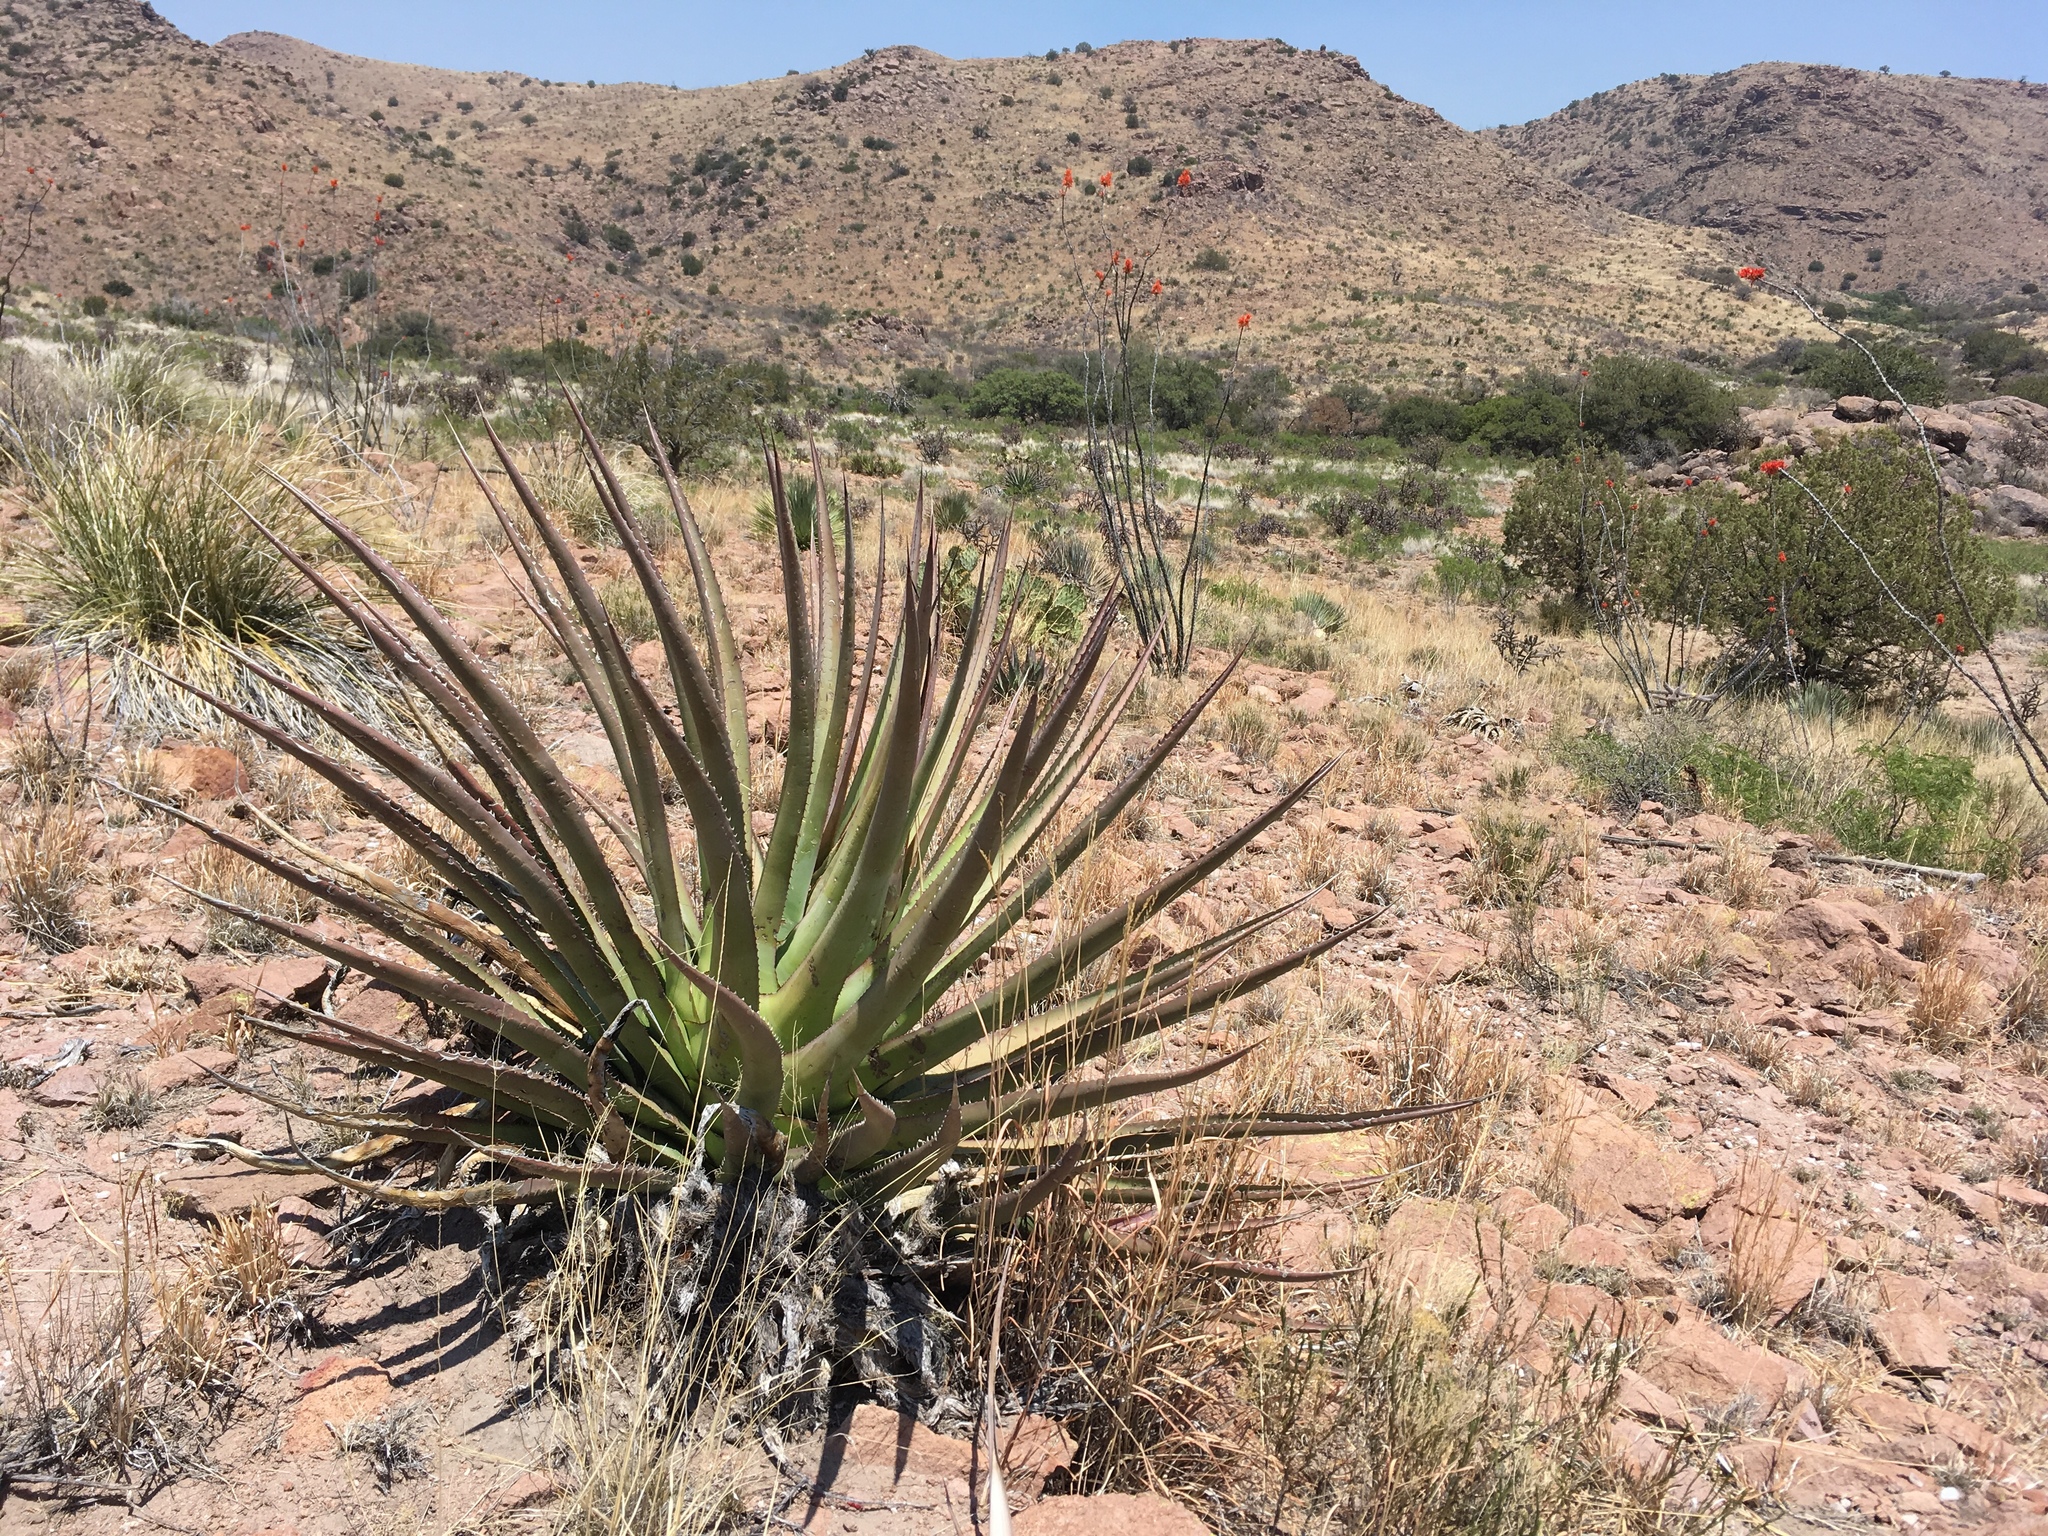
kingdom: Plantae
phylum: Tracheophyta
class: Liliopsida
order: Asparagales
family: Asparagaceae
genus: Agave
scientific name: Agave palmeri
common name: Palmer agave
